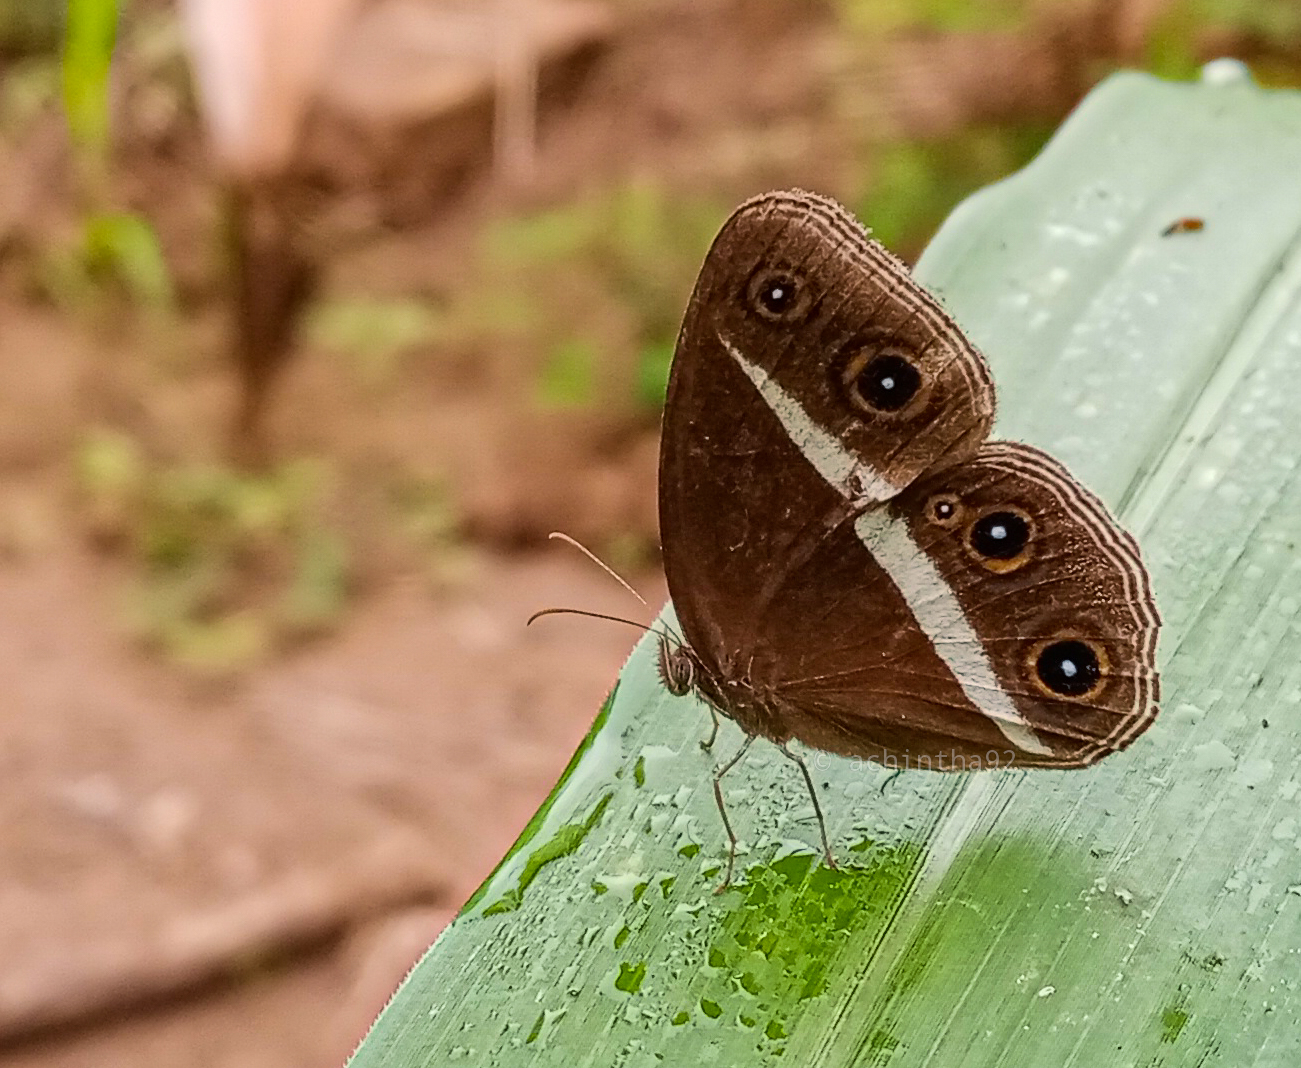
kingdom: Animalia
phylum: Arthropoda
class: Insecta
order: Lepidoptera
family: Nymphalidae
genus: Orsotriaena
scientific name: Orsotriaena medus
